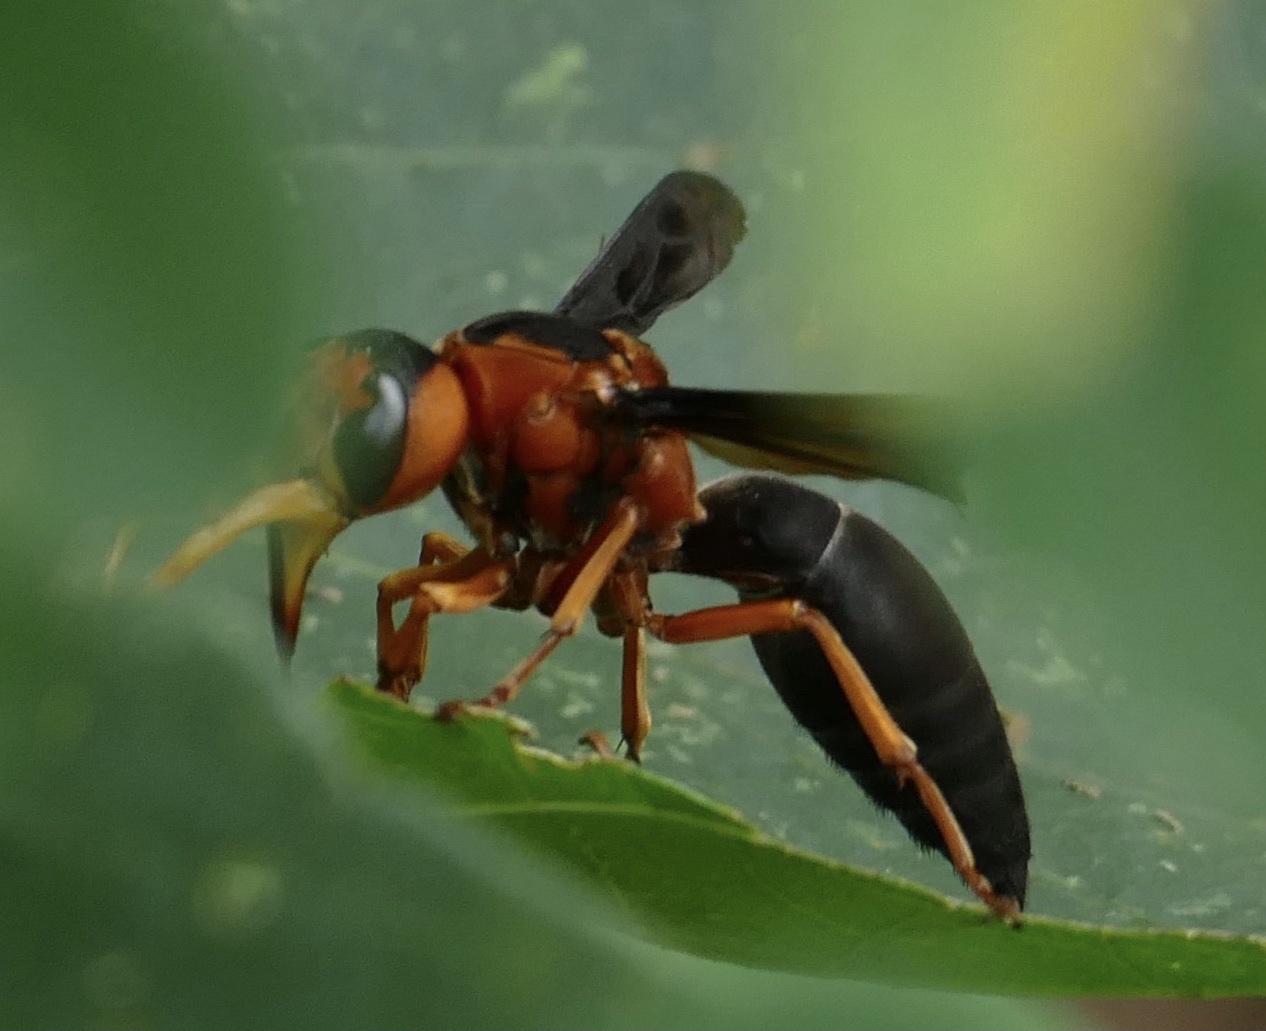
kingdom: Animalia
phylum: Arthropoda
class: Insecta
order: Hymenoptera
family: Vespidae
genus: Synagris
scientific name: Synagris cornuta
